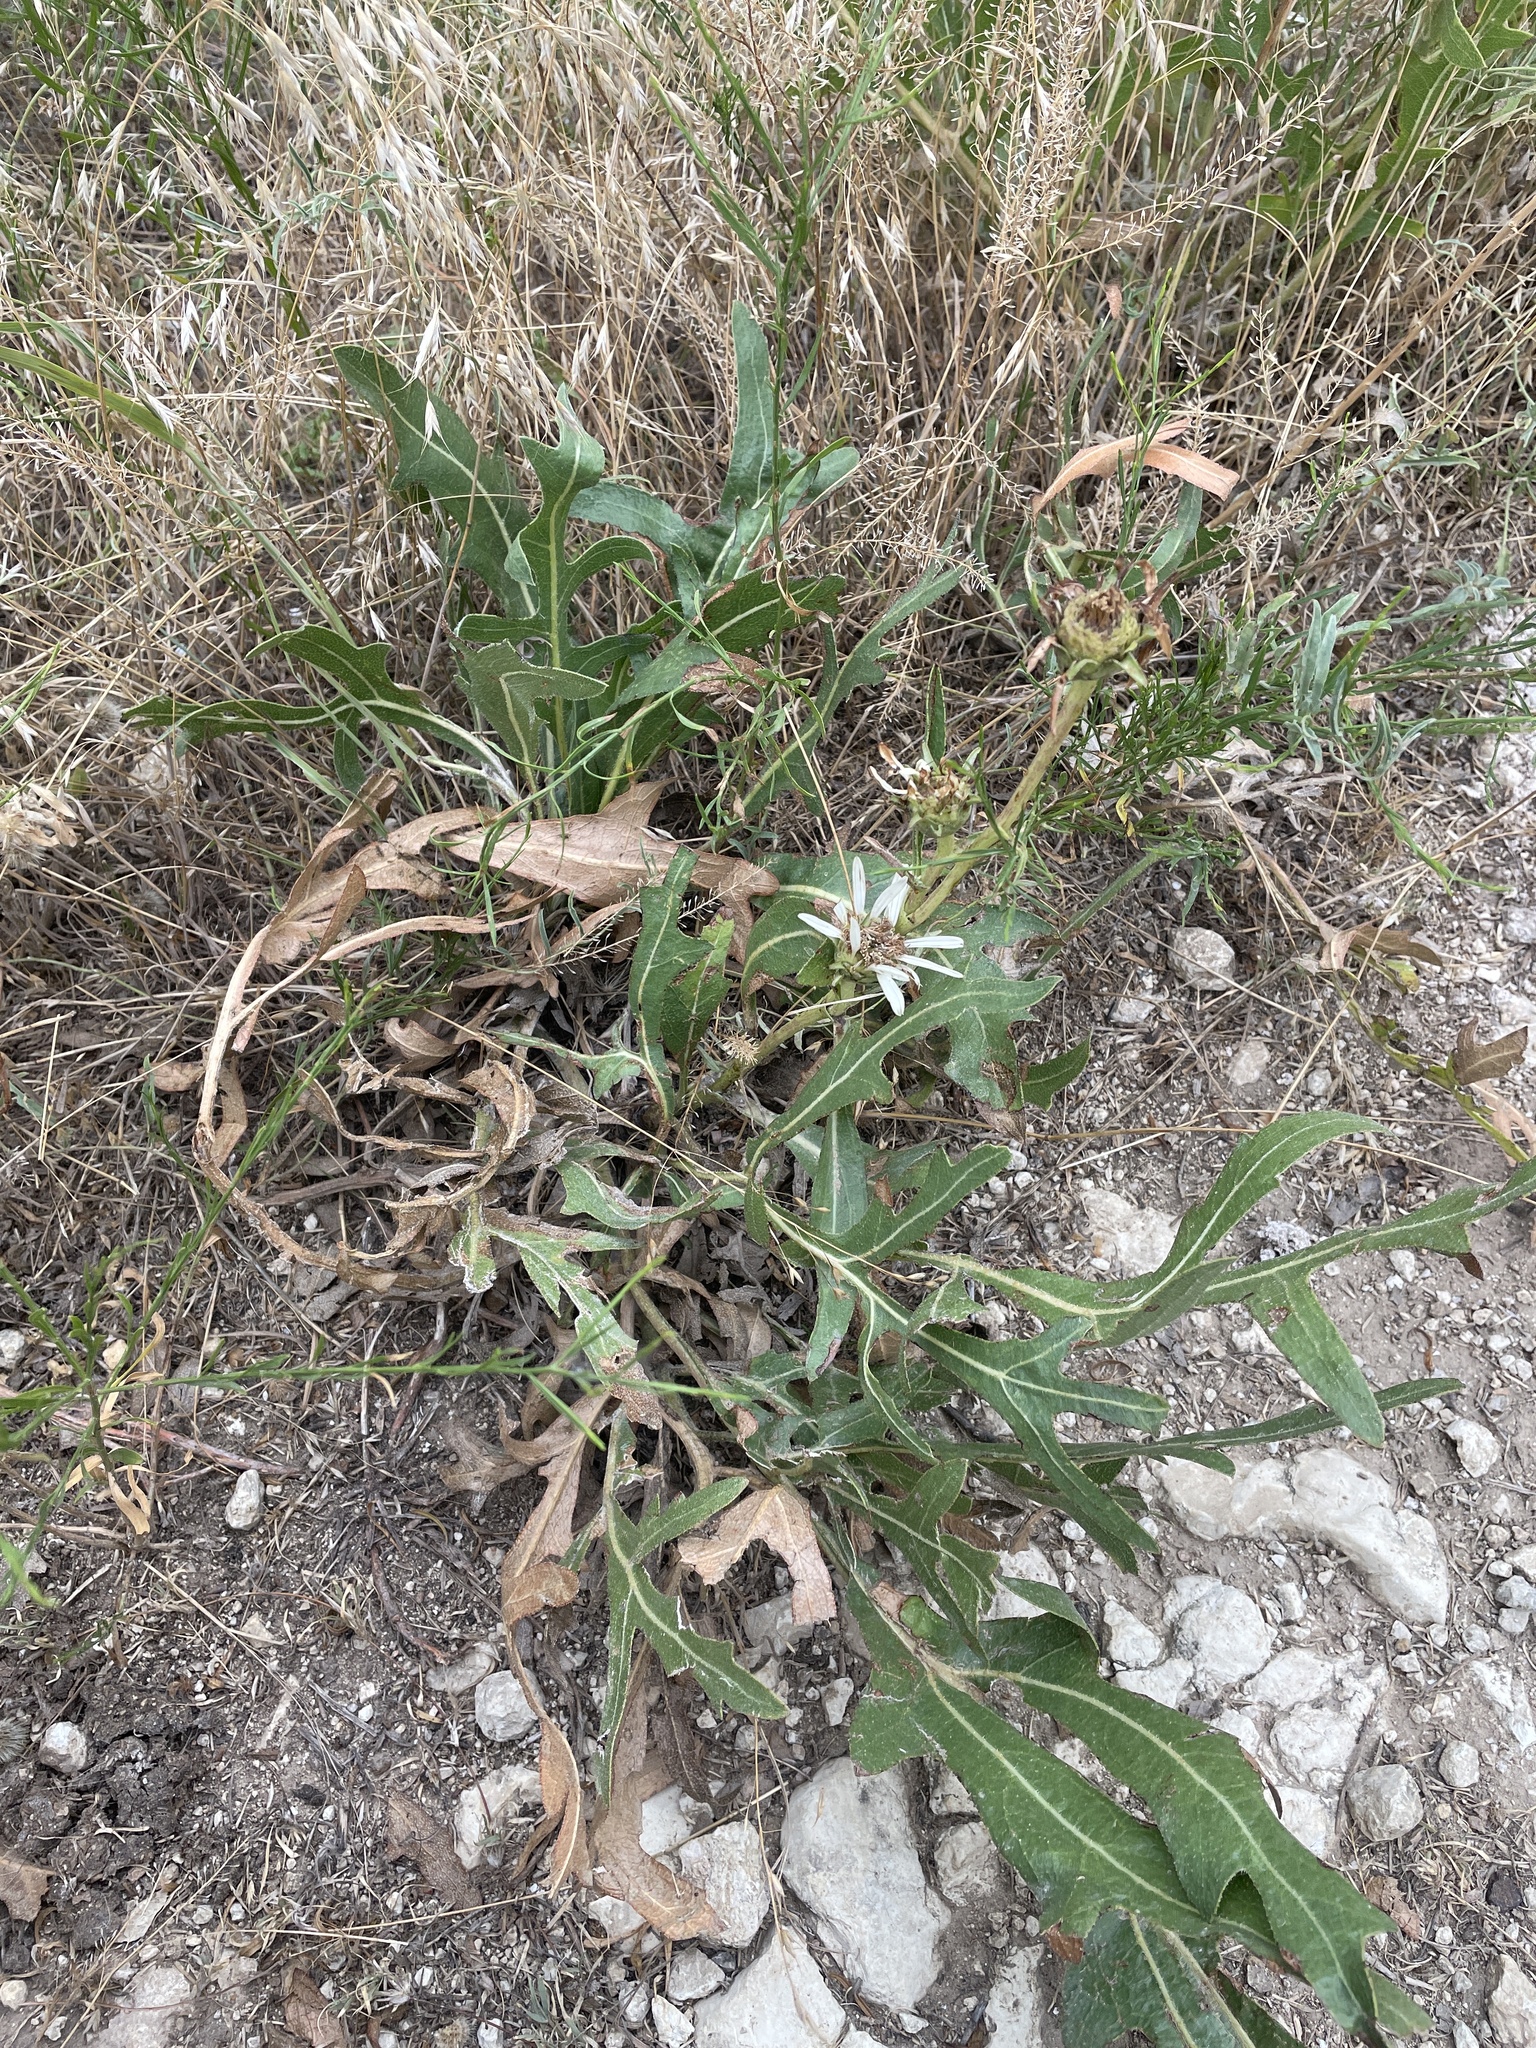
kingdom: Plantae
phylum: Tracheophyta
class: Magnoliopsida
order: Asterales
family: Asteraceae
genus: Silphium
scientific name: Silphium albiflorum
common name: White rosinweed
